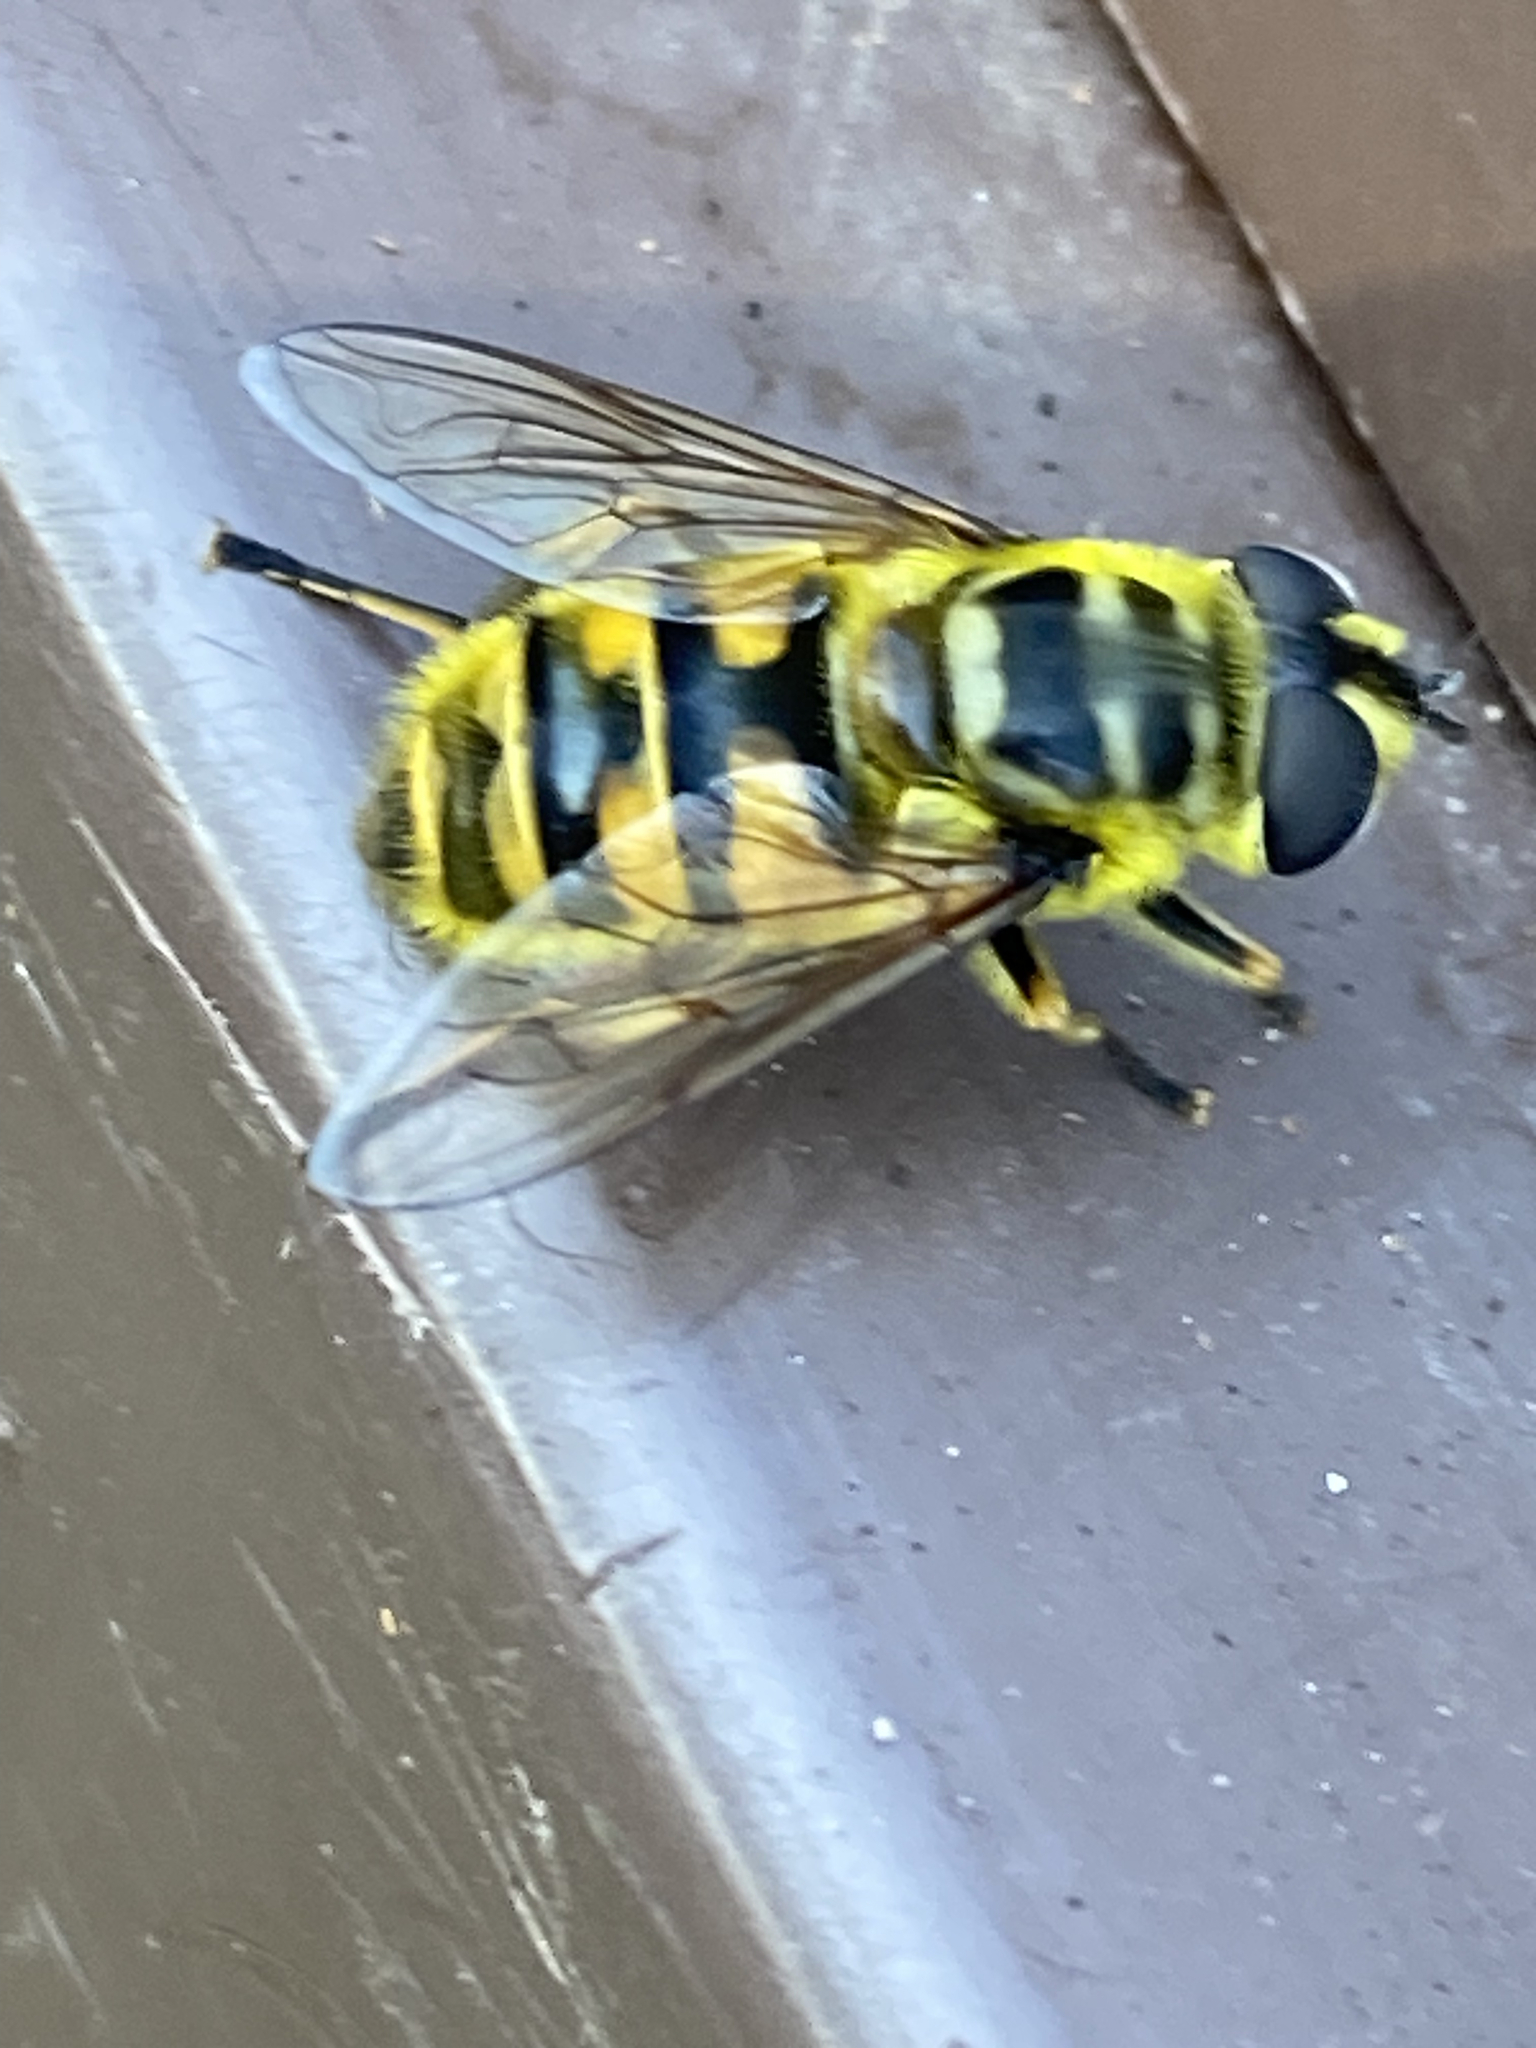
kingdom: Animalia
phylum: Arthropoda
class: Insecta
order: Diptera
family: Syrphidae
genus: Myathropa
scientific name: Myathropa florea
